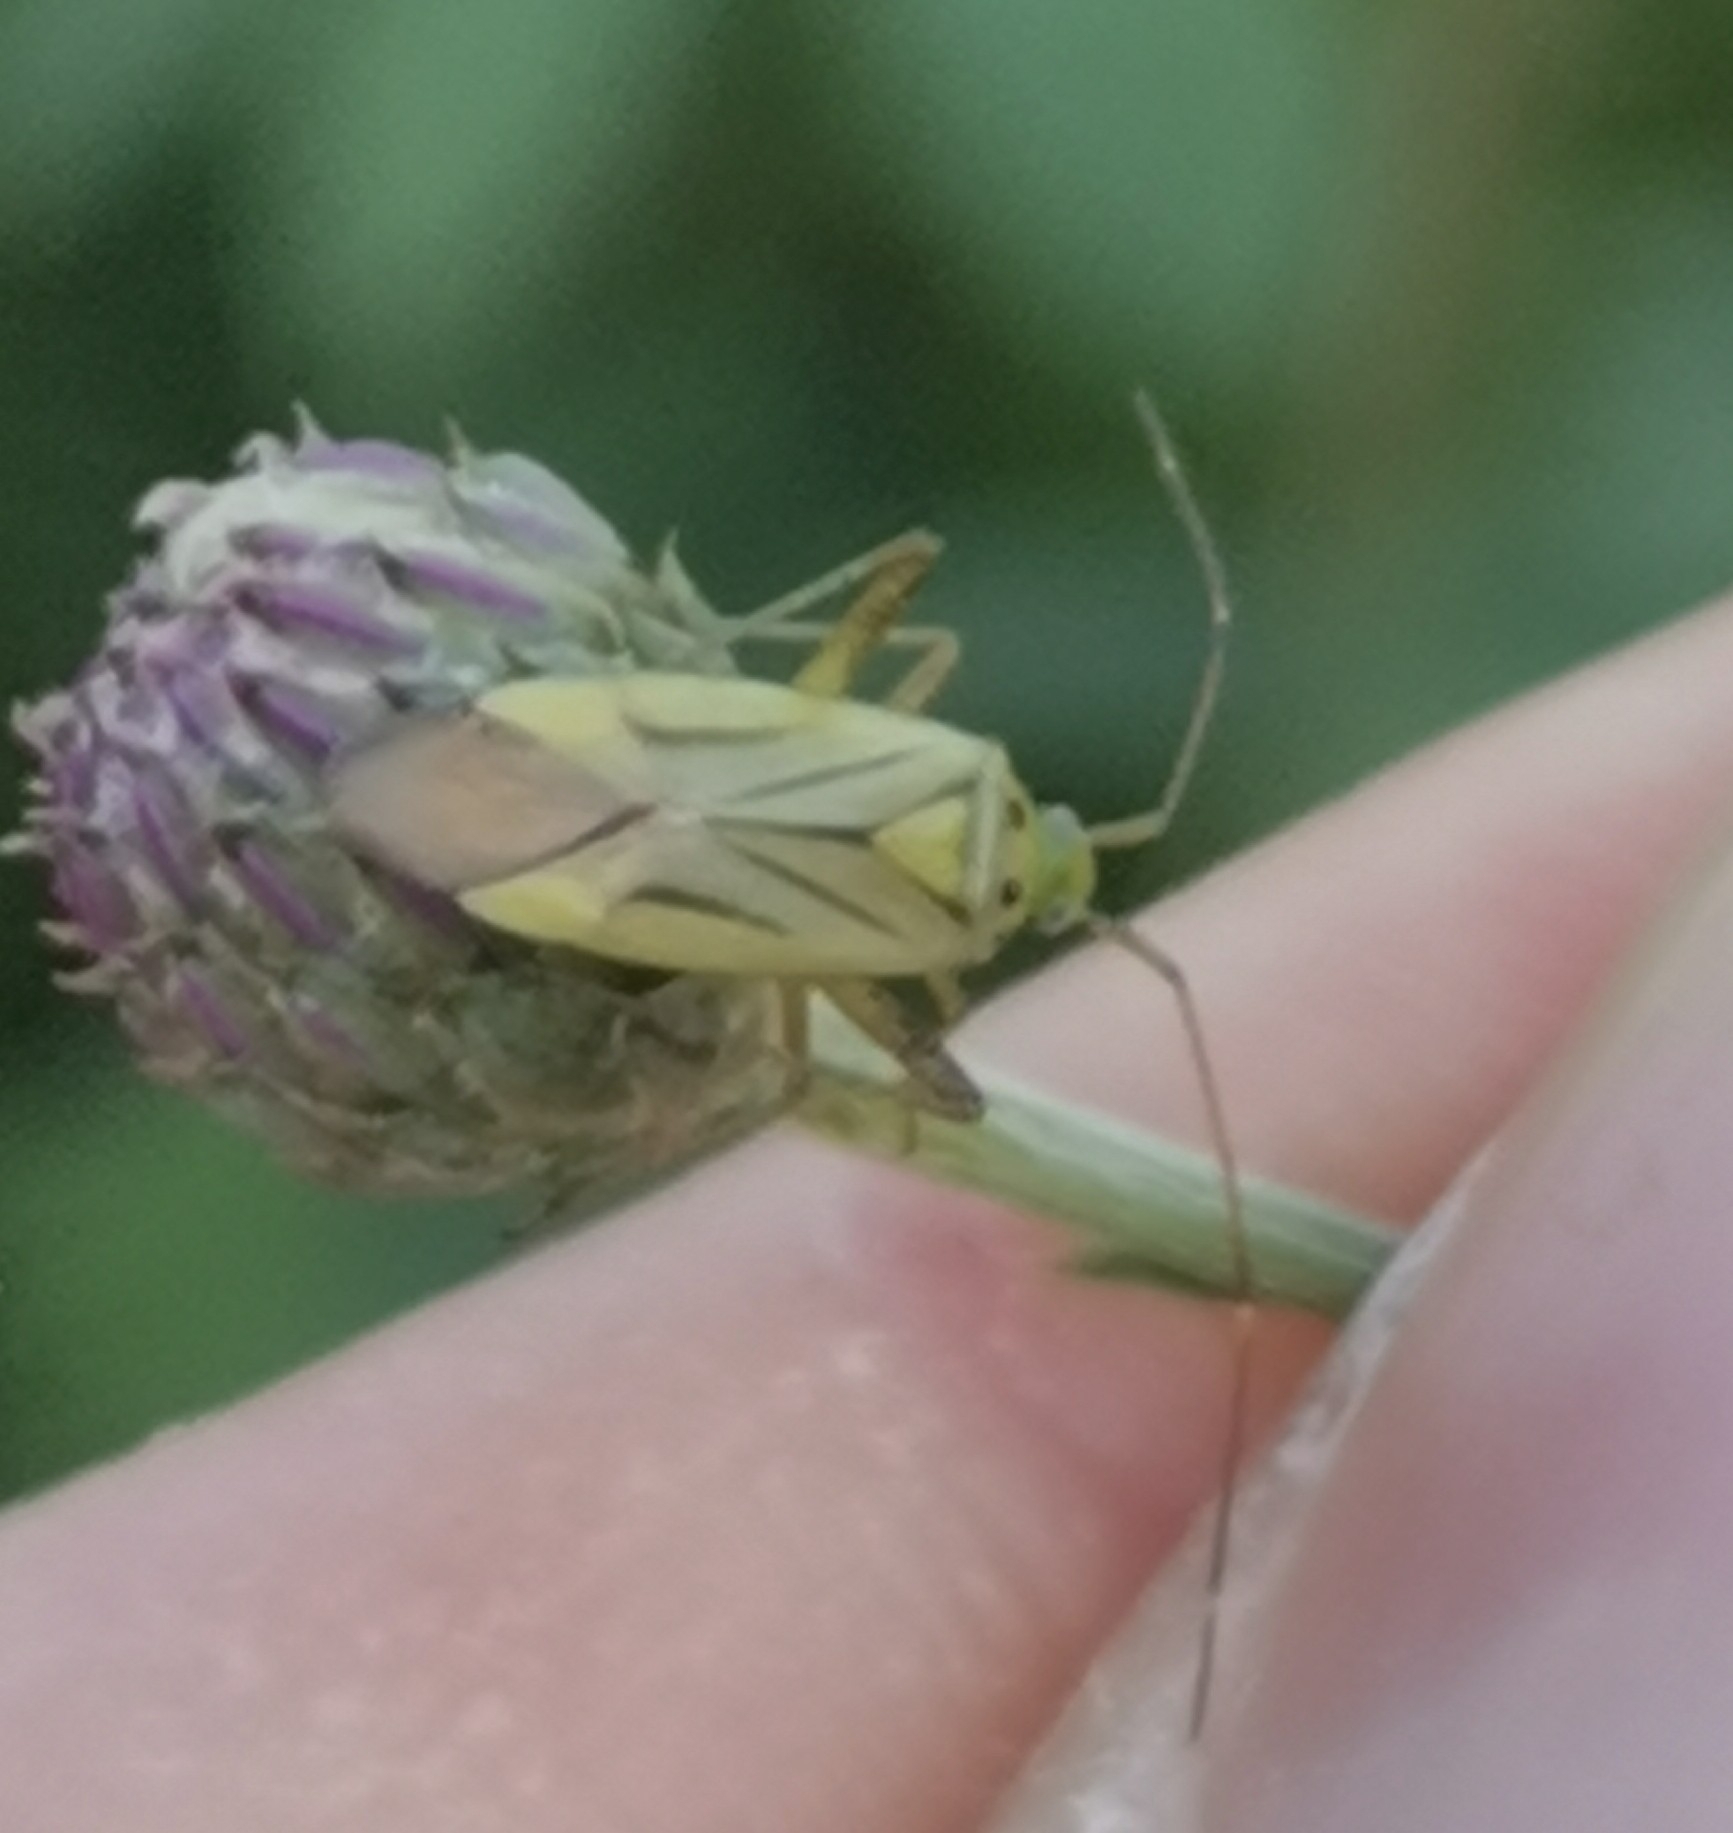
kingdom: Animalia
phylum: Arthropoda
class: Insecta
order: Hemiptera
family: Miridae
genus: Adelphocoris
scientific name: Adelphocoris quadripunctatus
